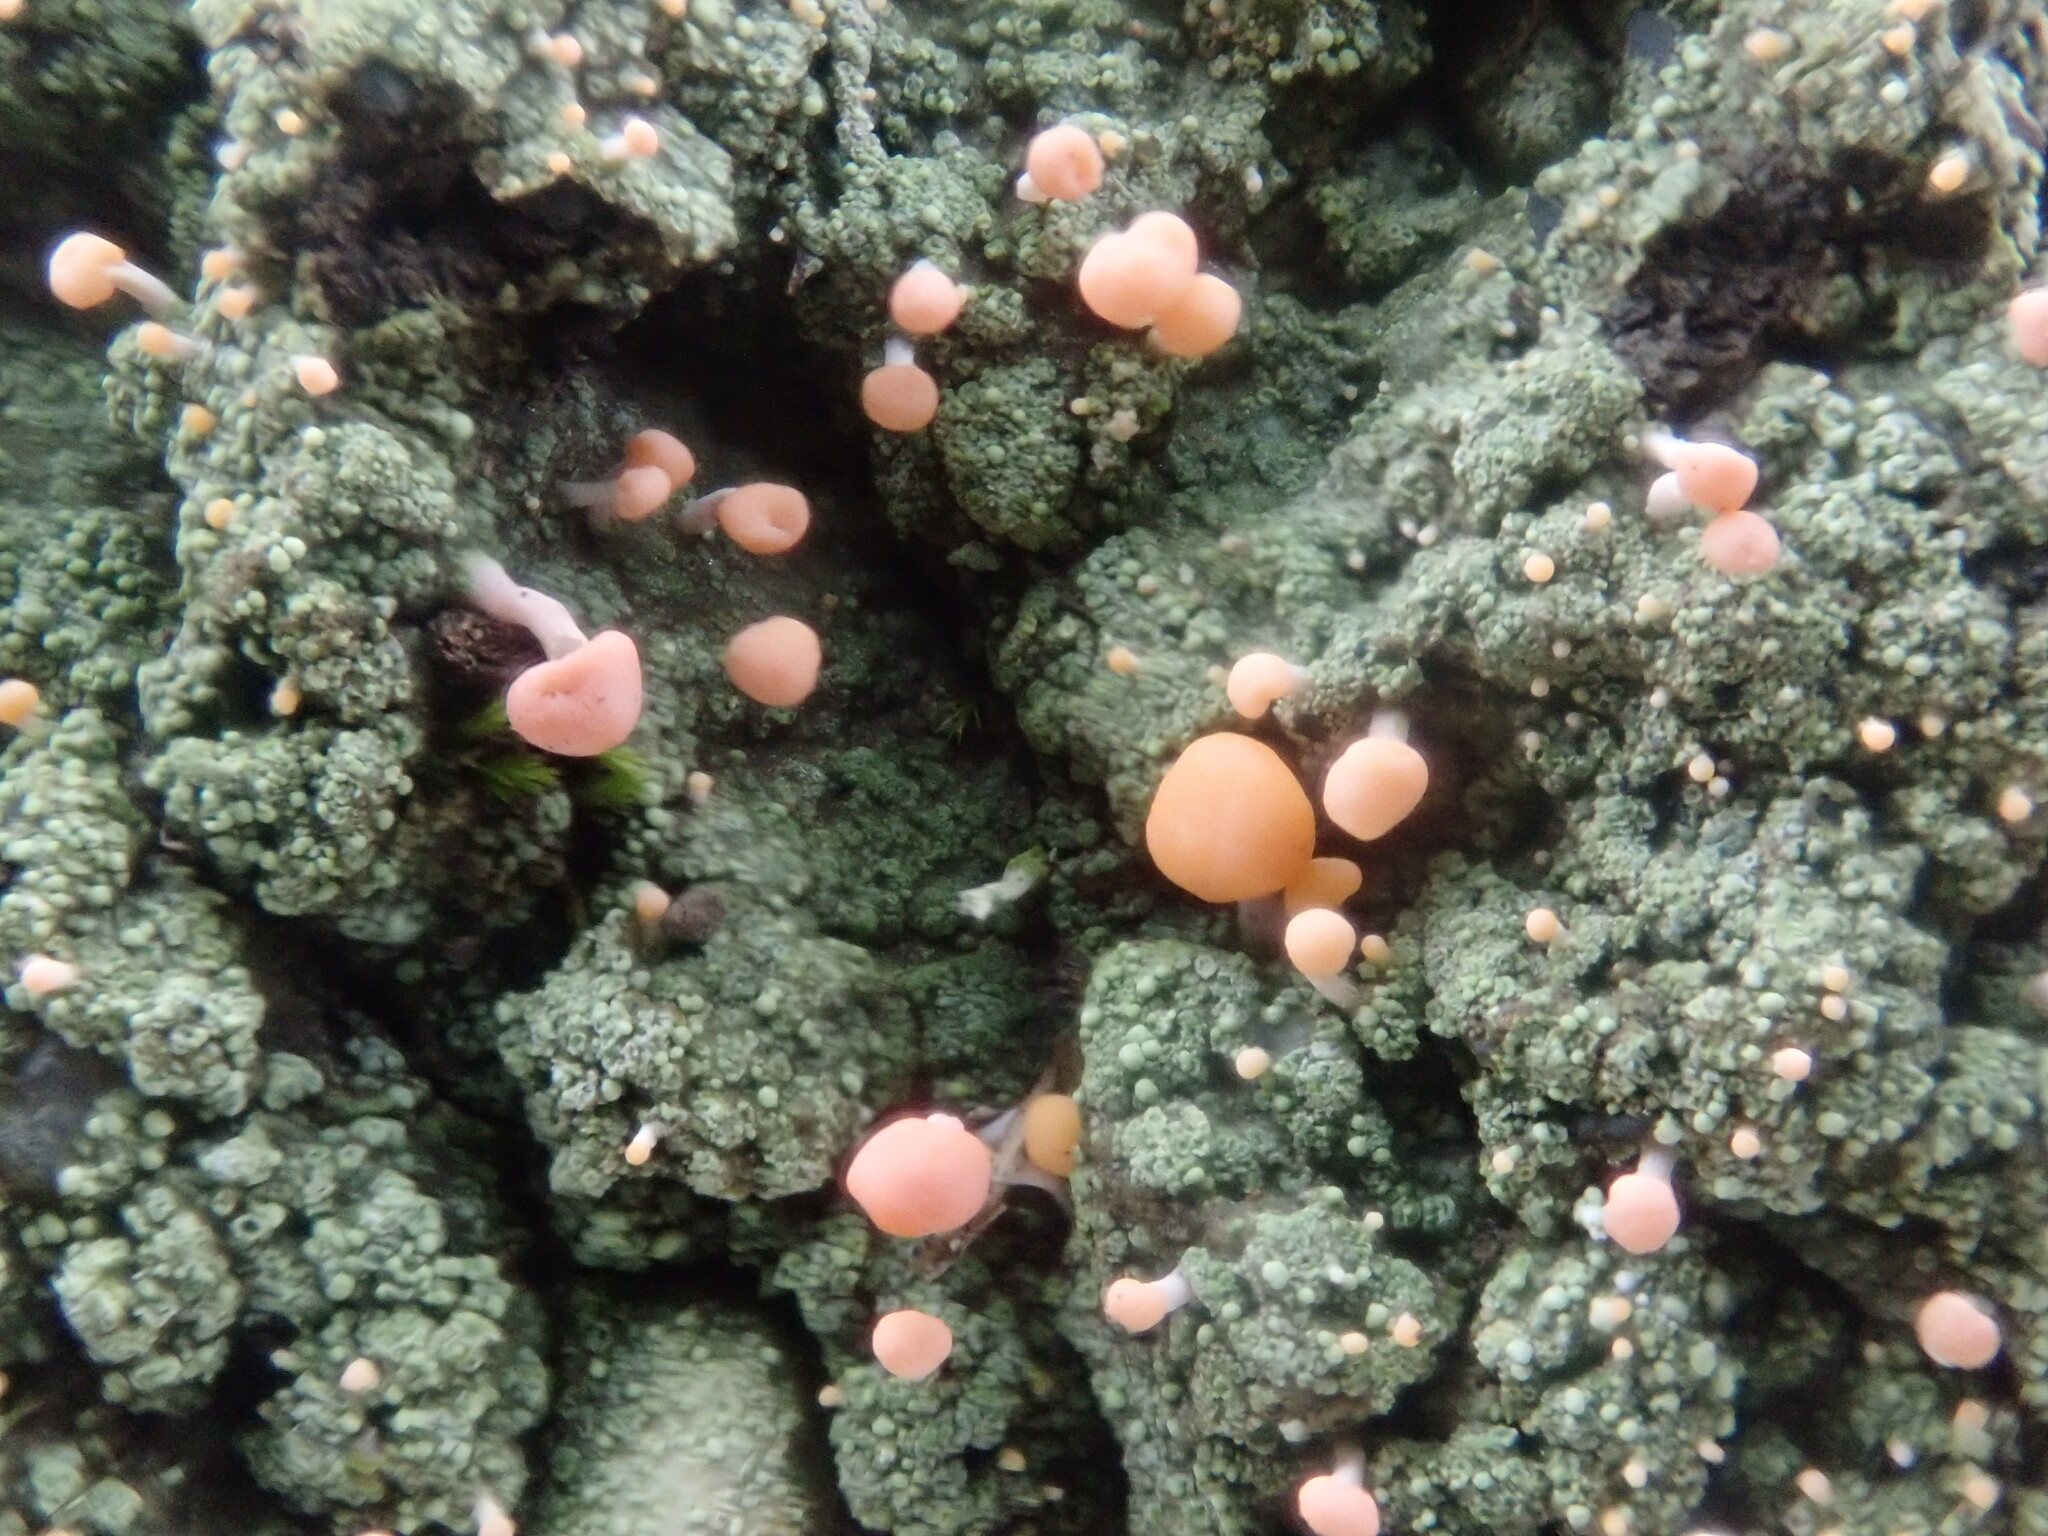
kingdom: Fungi
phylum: Ascomycota
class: Lecanoromycetes
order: Pertusariales
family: Icmadophilaceae
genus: Dibaeis
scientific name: Dibaeis baeomyces
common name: Pink earth lichen
